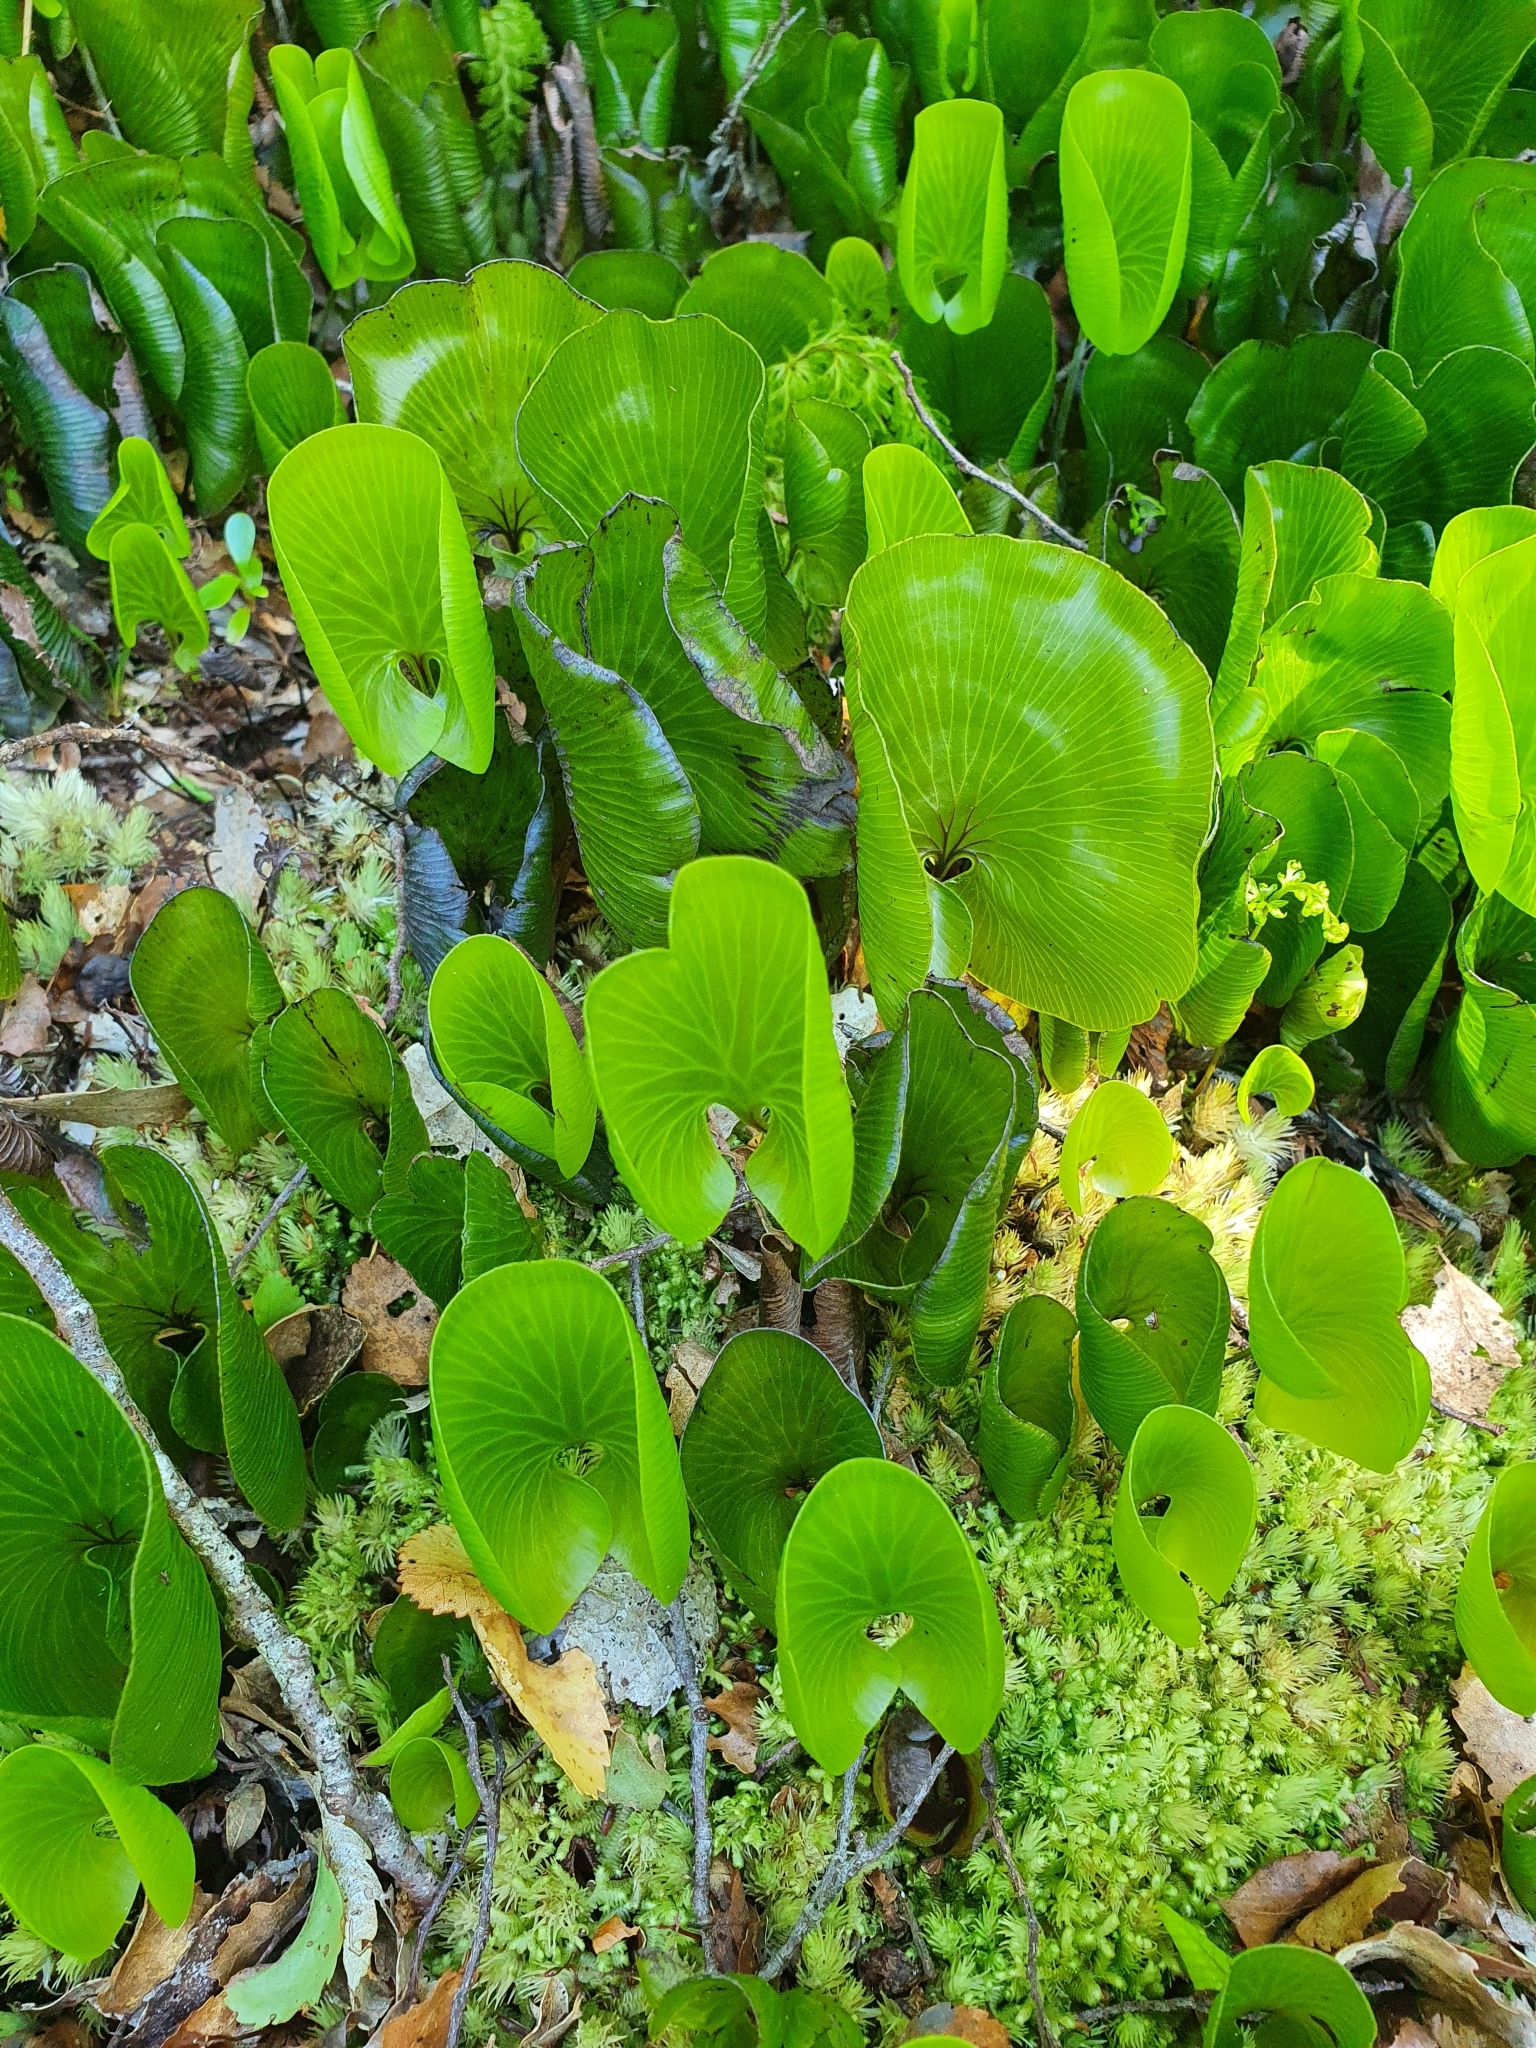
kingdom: Plantae
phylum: Tracheophyta
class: Polypodiopsida
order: Hymenophyllales
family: Hymenophyllaceae
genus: Hymenophyllum
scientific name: Hymenophyllum nephrophyllum
